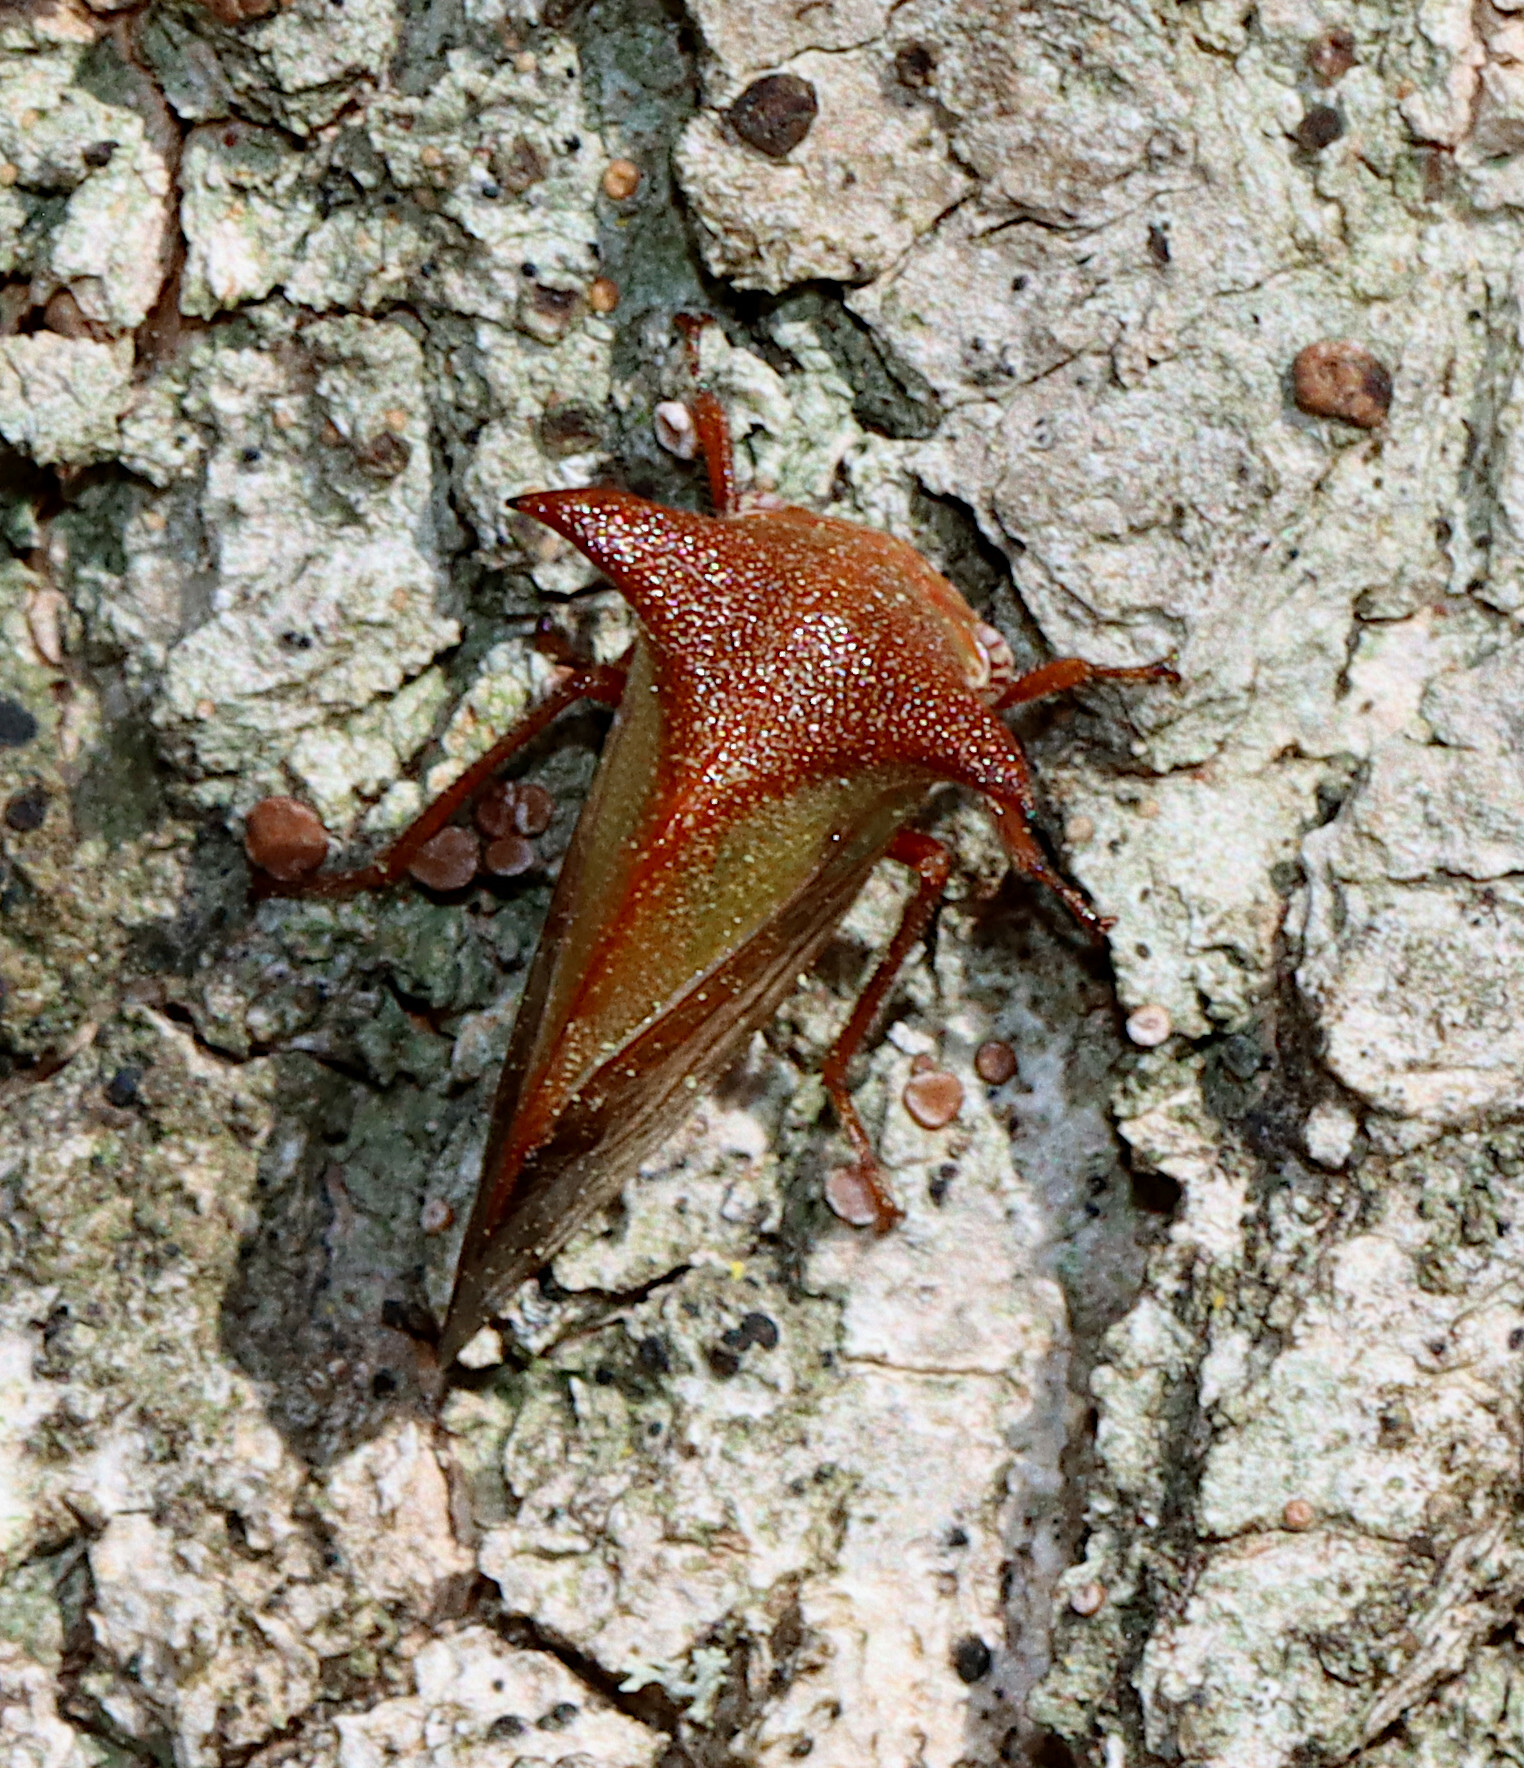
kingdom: Animalia
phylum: Arthropoda
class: Insecta
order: Hemiptera
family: Membracidae
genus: Stictocephala
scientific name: Stictocephala stimulea
